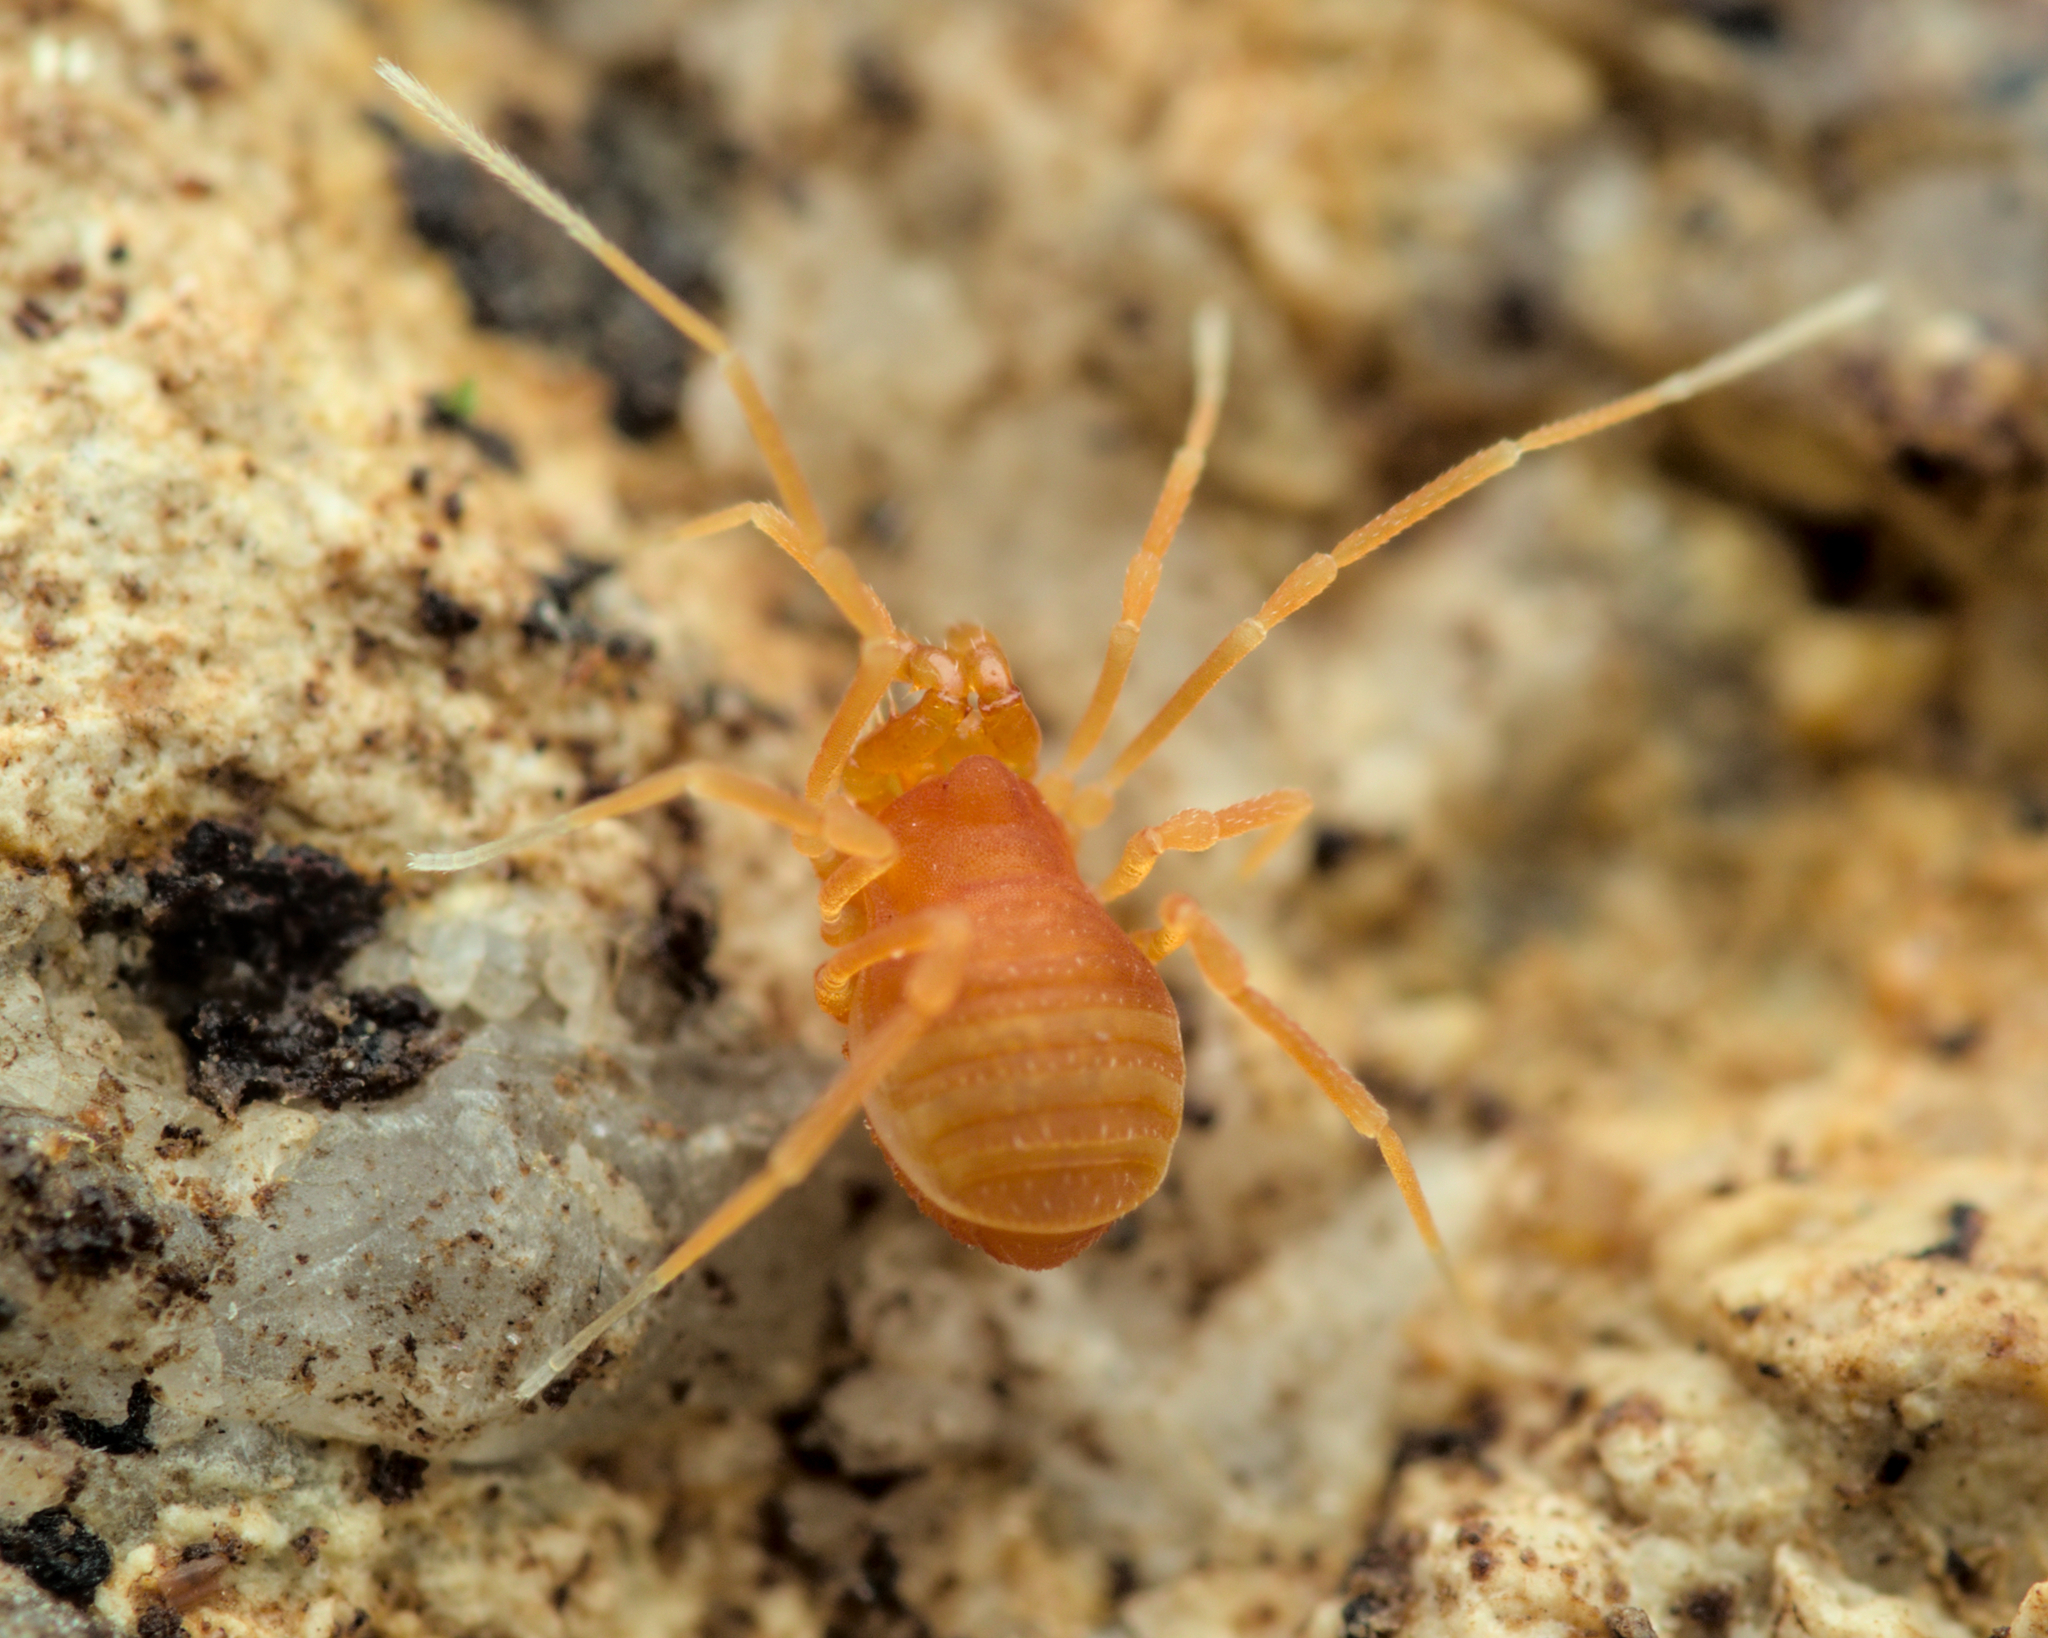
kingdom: Animalia
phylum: Arthropoda
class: Arachnida
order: Opiliones
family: Phalangodidae
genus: Scotolemon
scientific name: Scotolemon doriae
